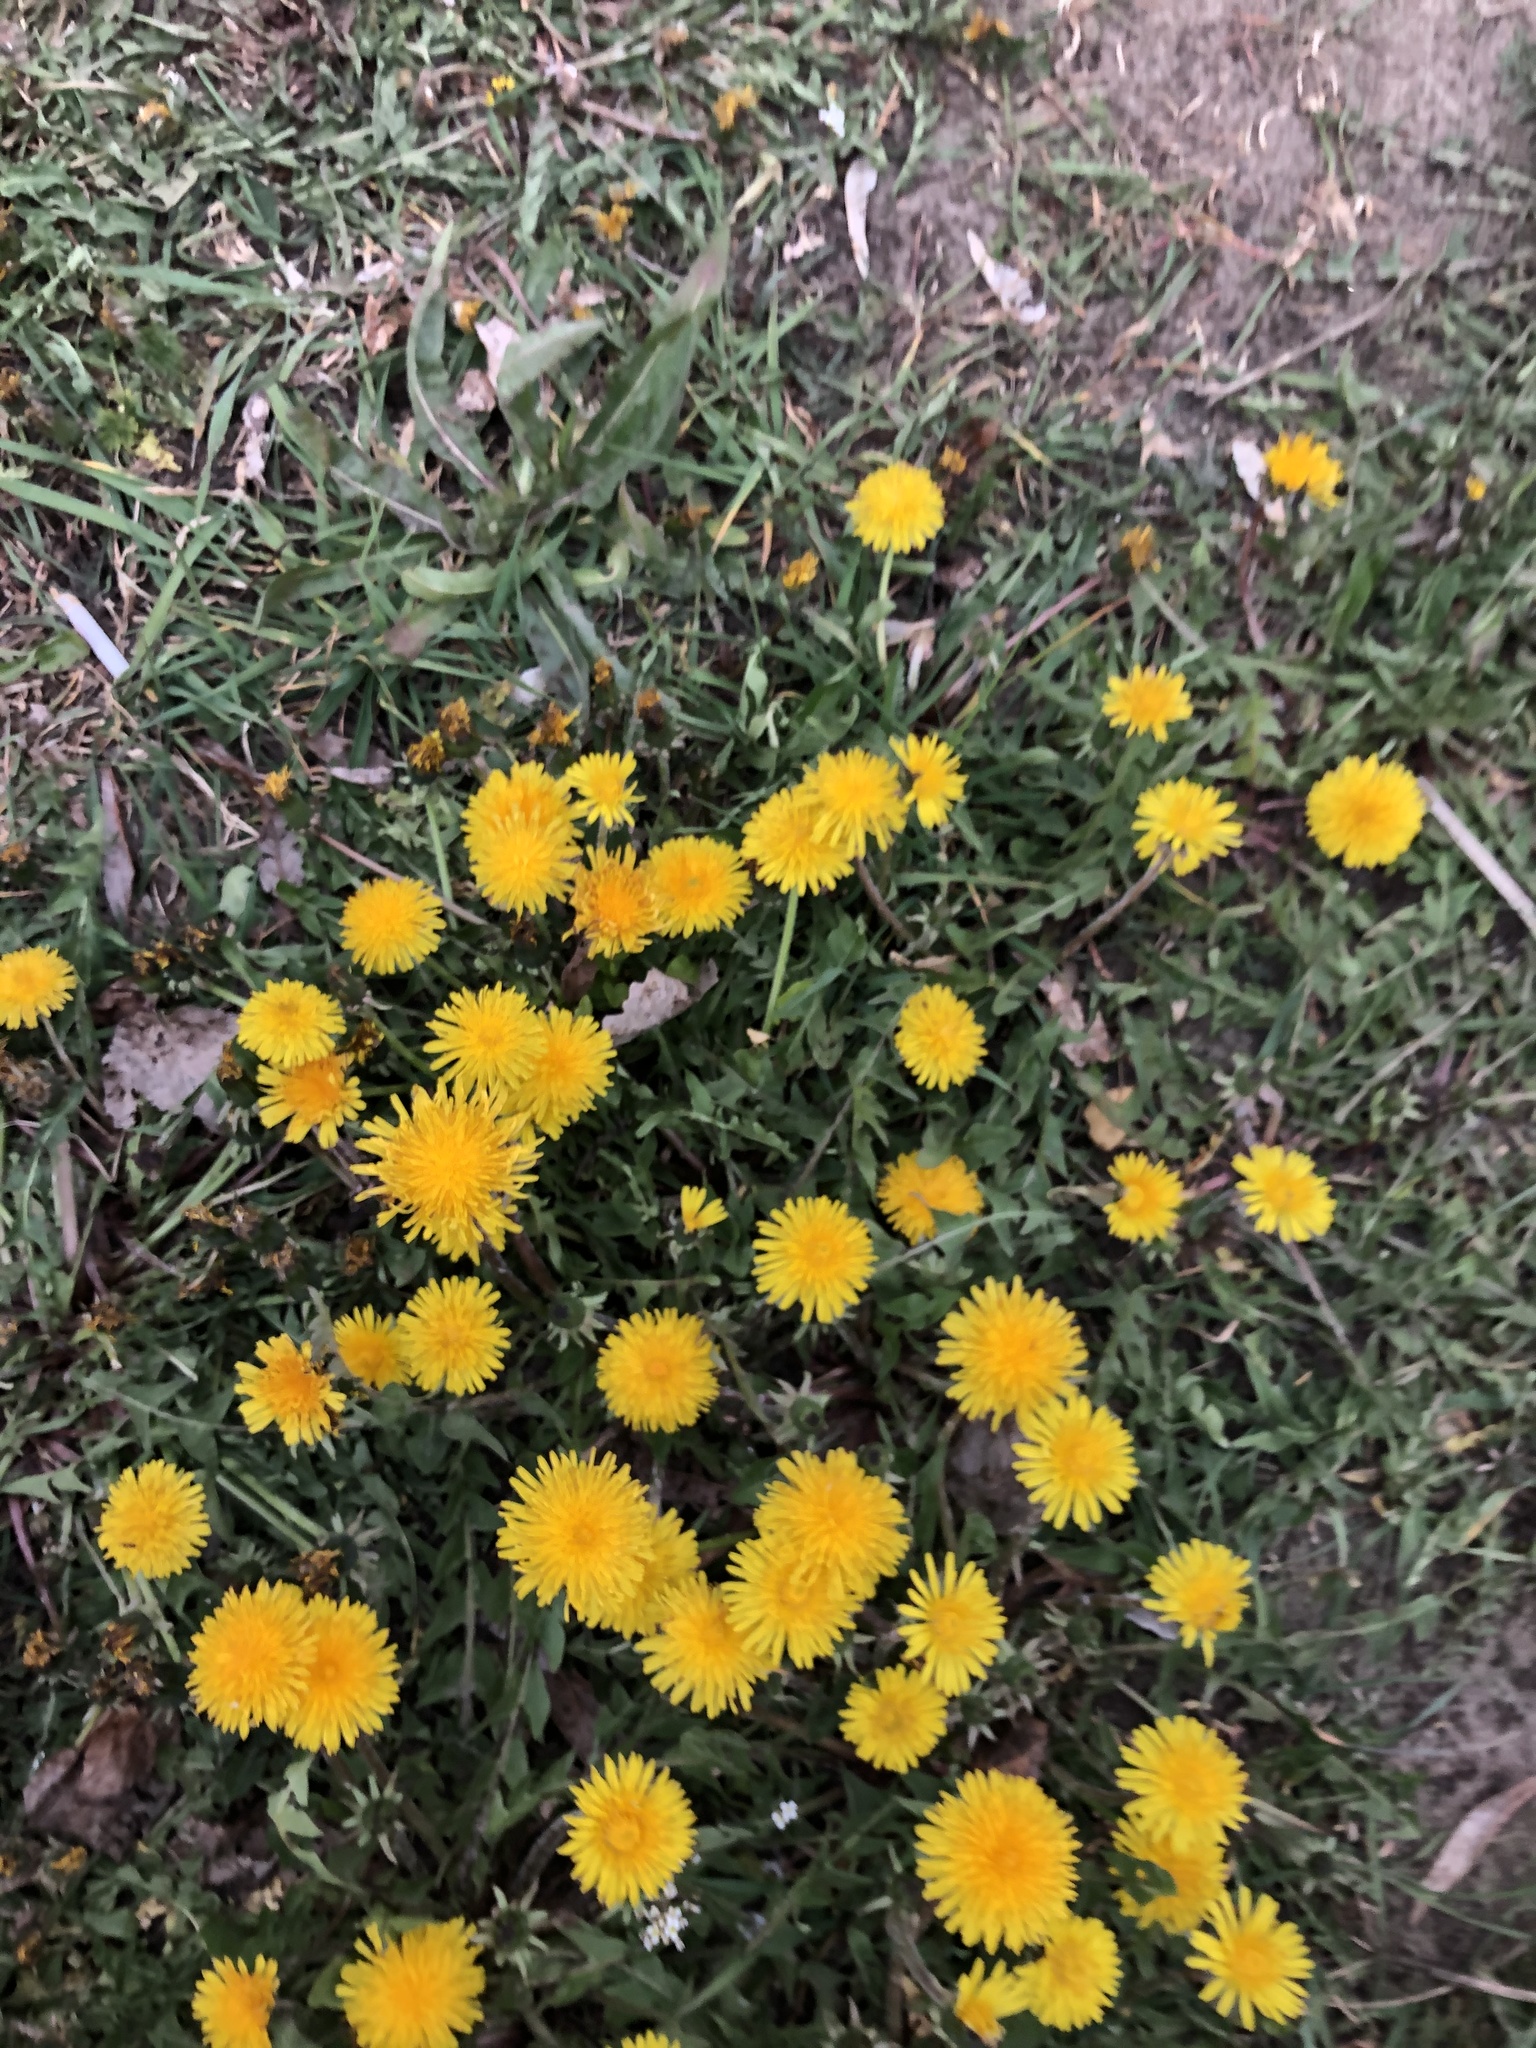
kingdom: Plantae
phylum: Tracheophyta
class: Magnoliopsida
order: Asterales
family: Asteraceae
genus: Taraxacum
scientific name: Taraxacum officinale
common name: Common dandelion
